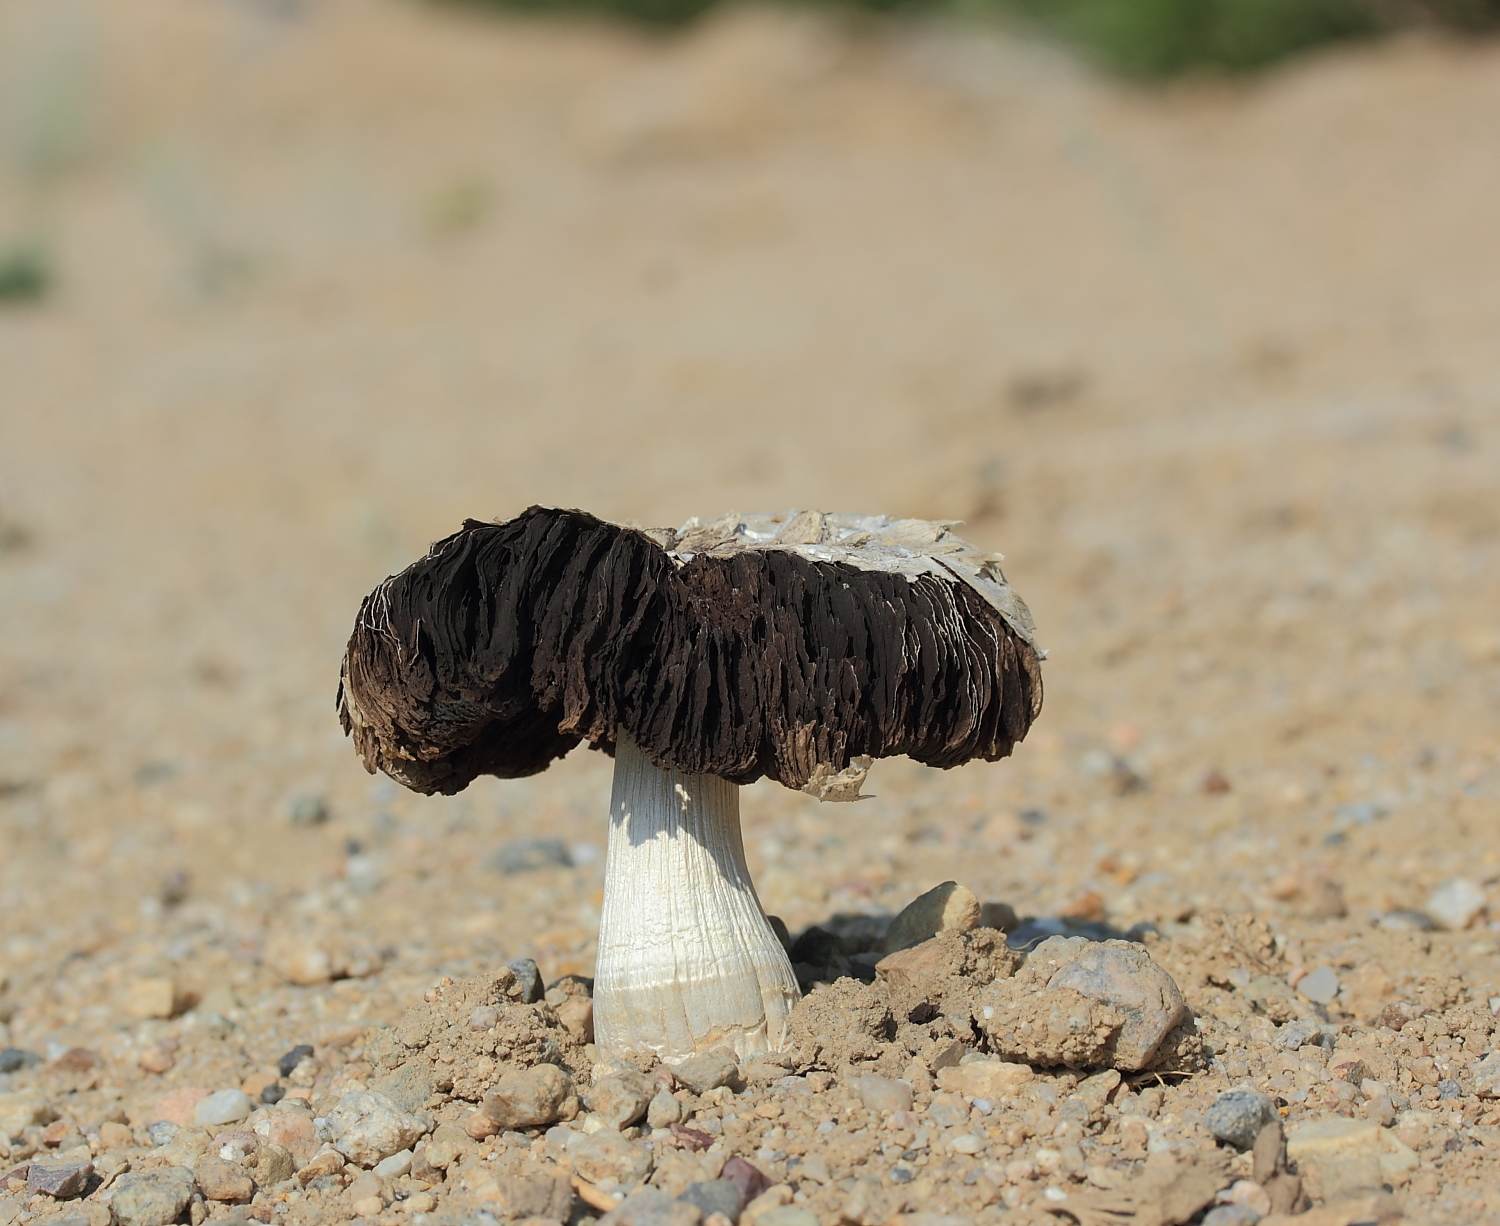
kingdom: Fungi
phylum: Basidiomycota
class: Agaricomycetes
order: Agaricales
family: Agaricaceae
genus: Agaricus
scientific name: Agaricus deserticola
